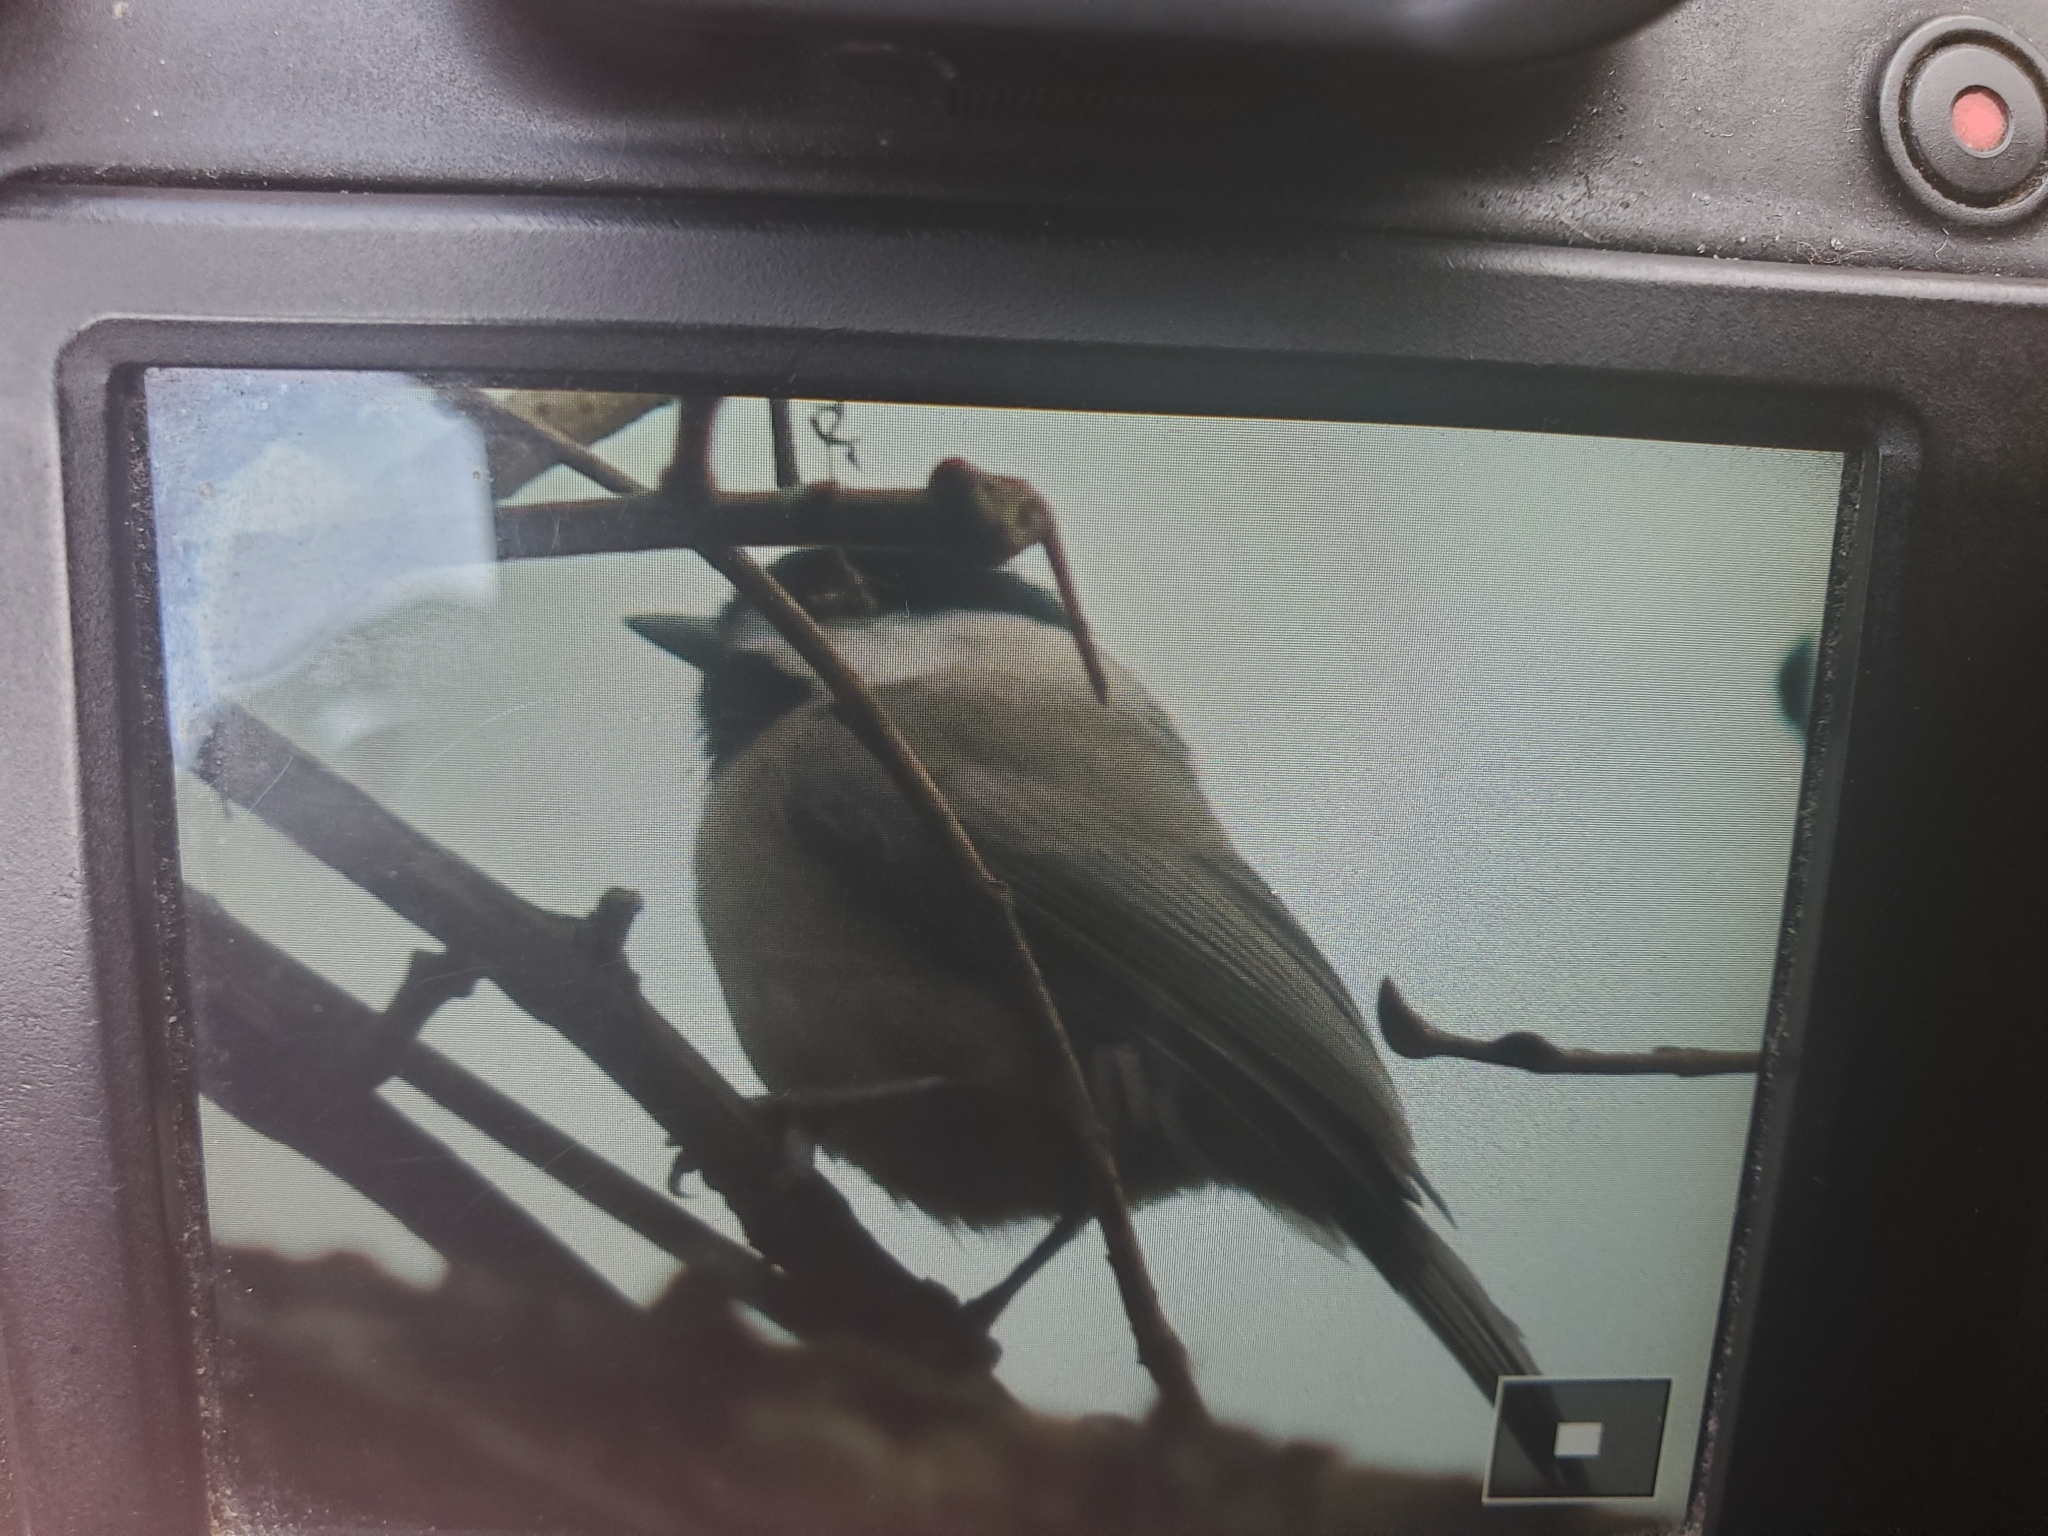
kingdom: Animalia
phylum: Chordata
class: Aves
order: Passeriformes
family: Paridae
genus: Poecile
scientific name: Poecile carolinensis
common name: Carolina chickadee
